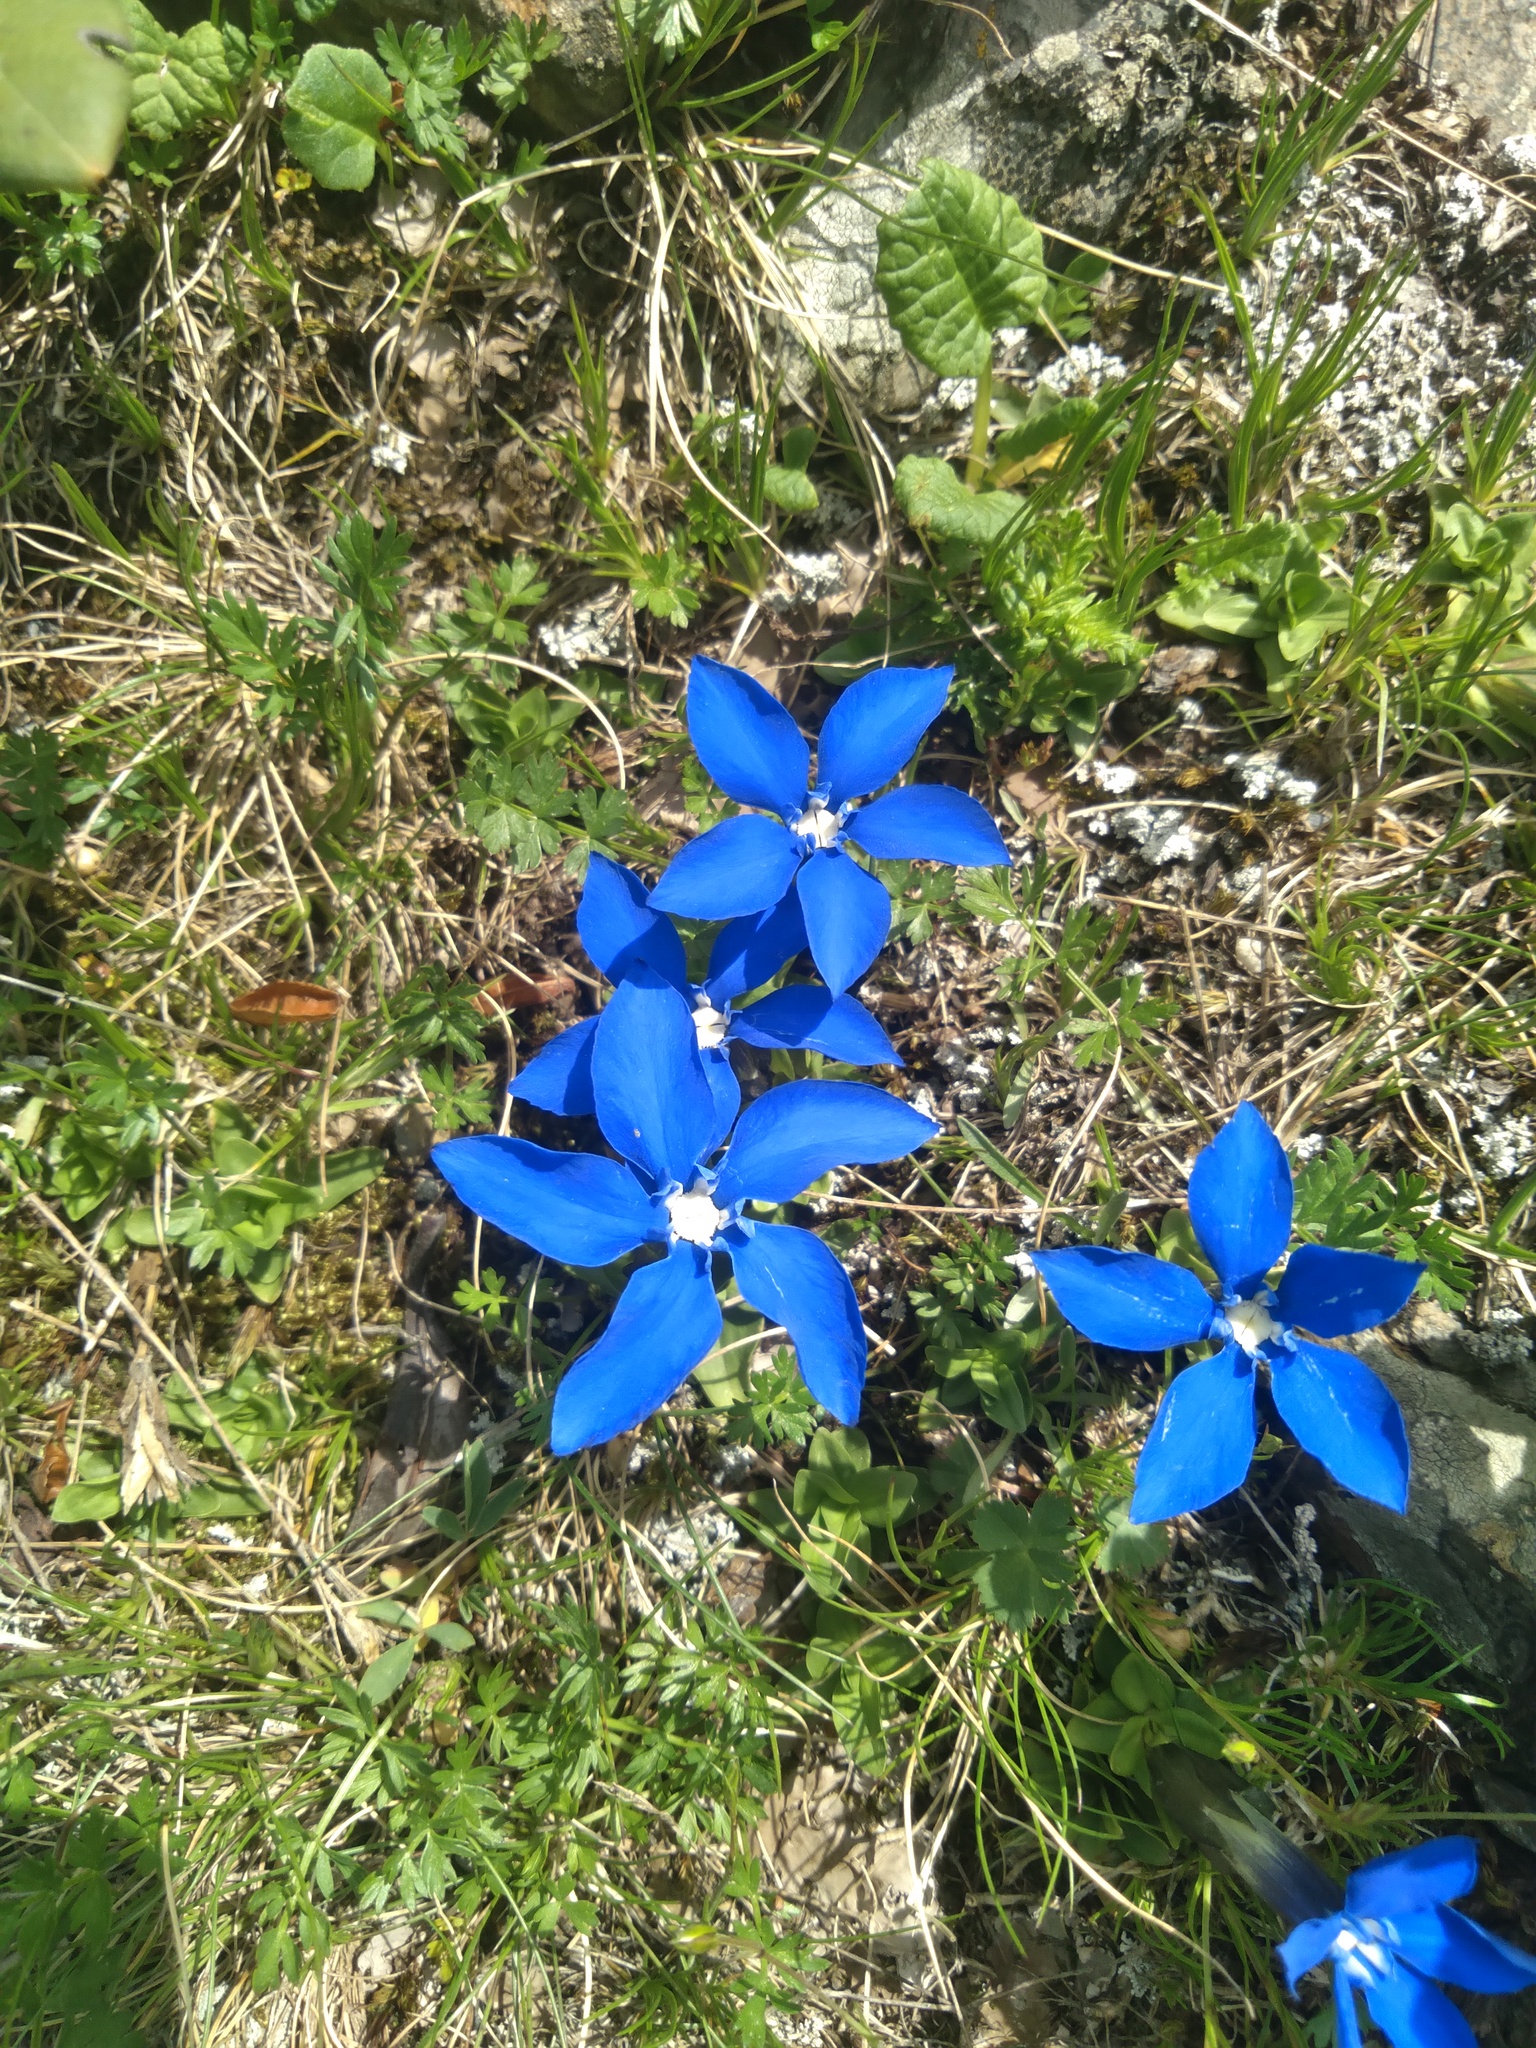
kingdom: Plantae
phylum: Tracheophyta
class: Magnoliopsida
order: Gentianales
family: Gentianaceae
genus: Gentiana
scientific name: Gentiana verna
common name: Spring gentian
